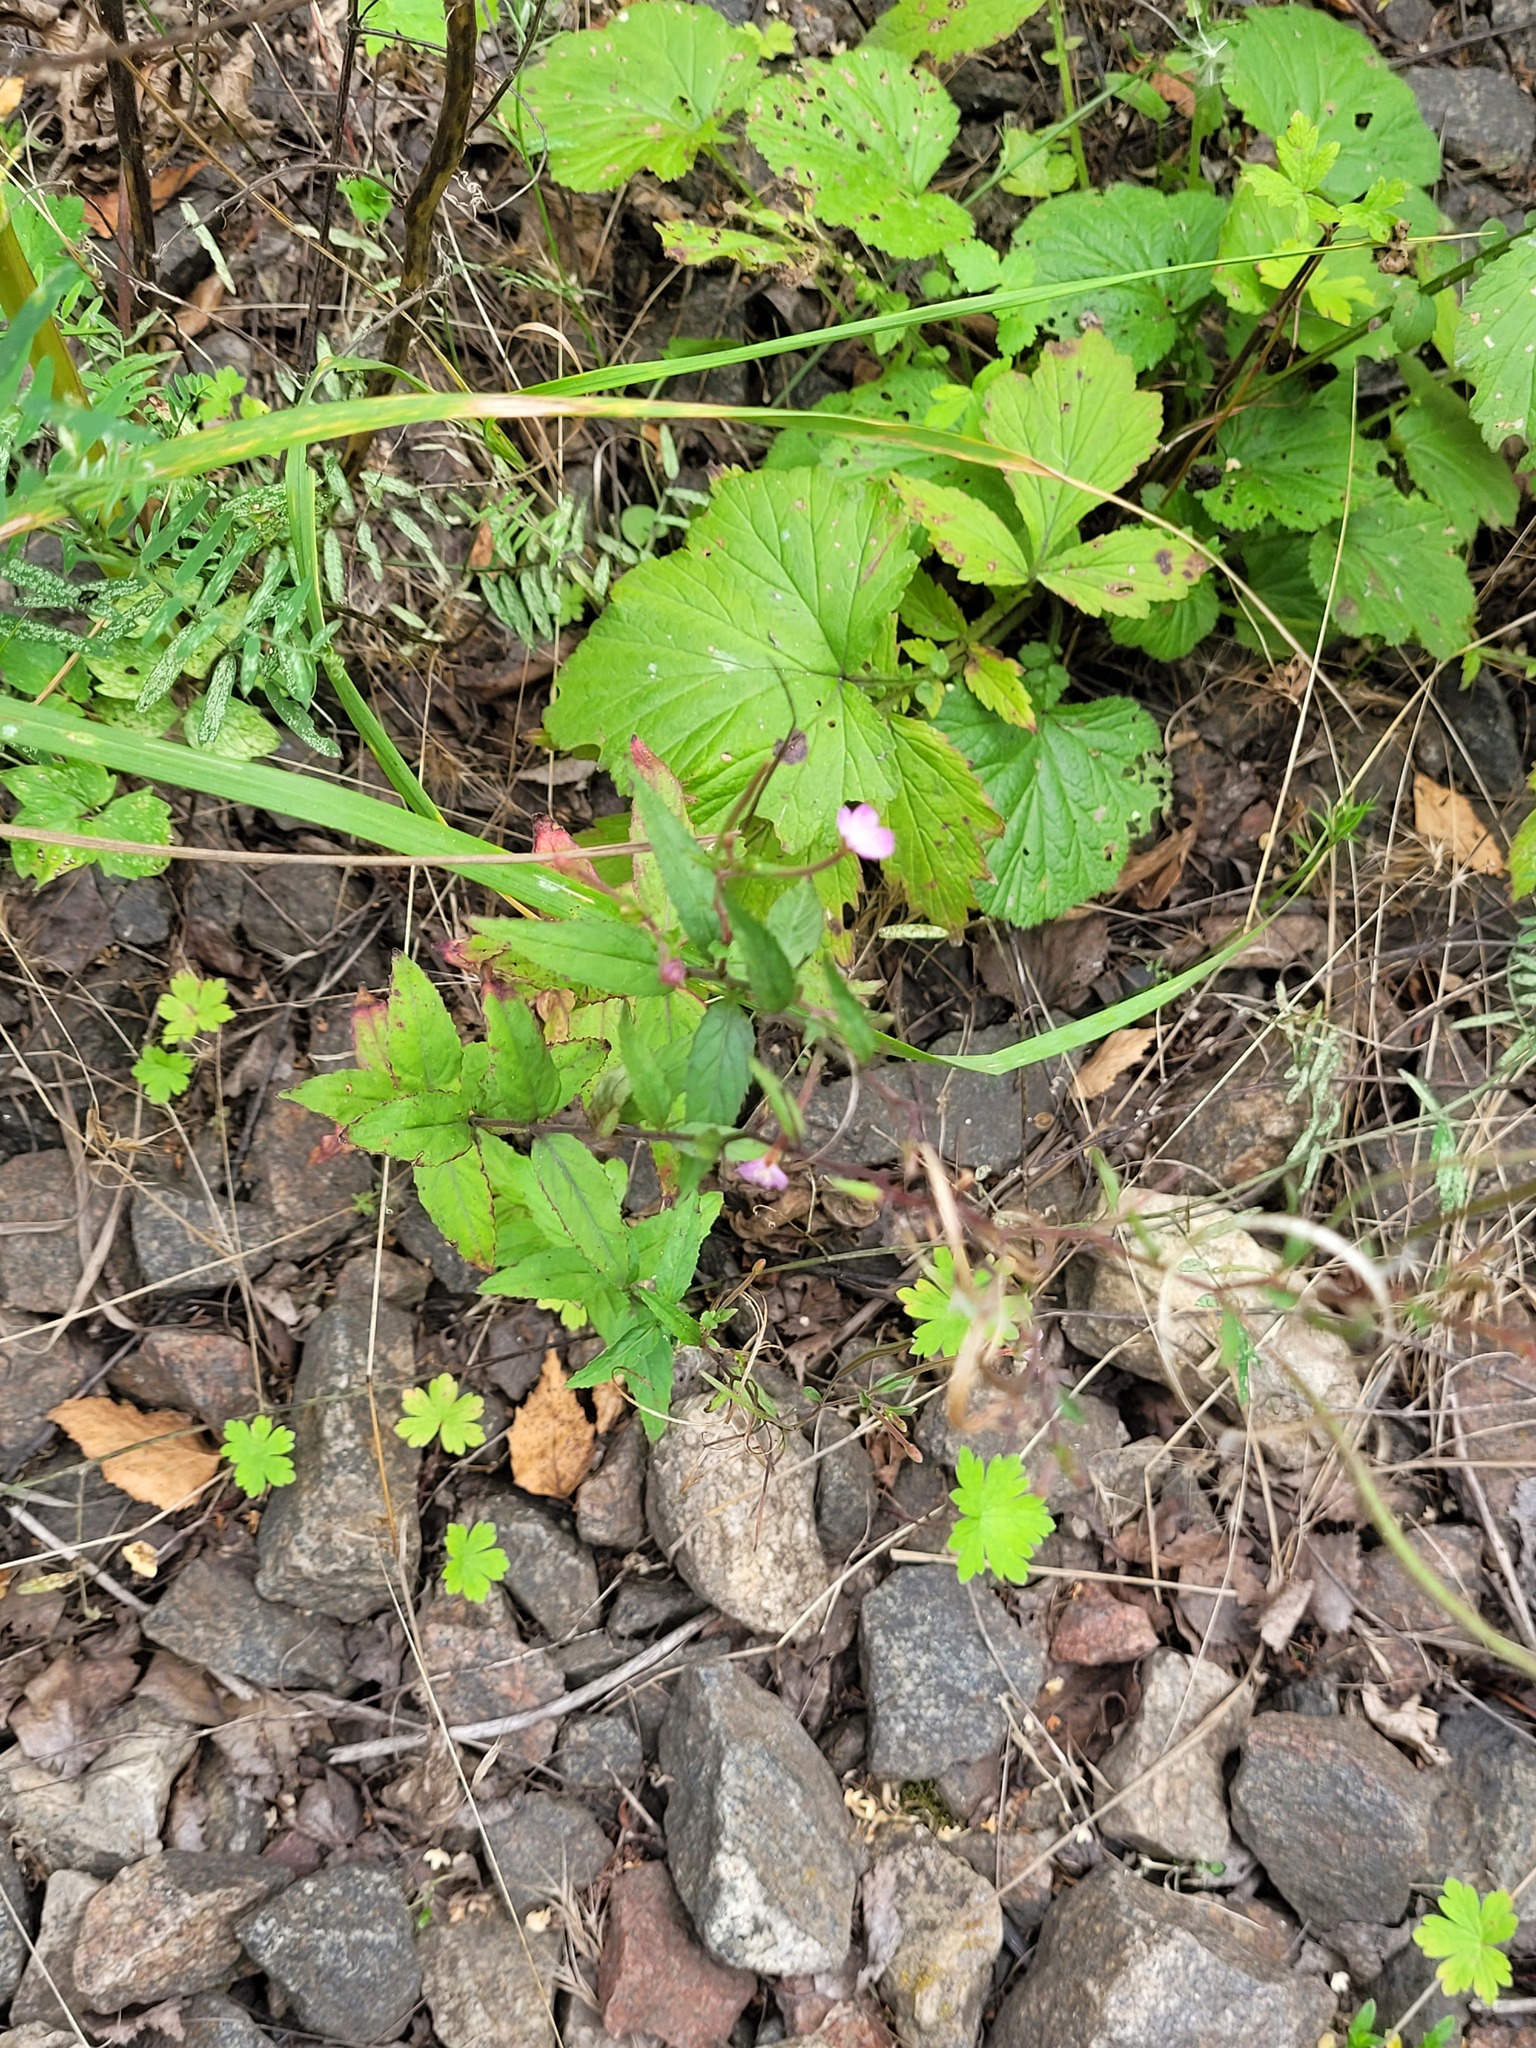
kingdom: Plantae
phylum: Tracheophyta
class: Magnoliopsida
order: Myrtales
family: Onagraceae
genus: Epilobium
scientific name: Epilobium montanum
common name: Broad-leaved willowherb
